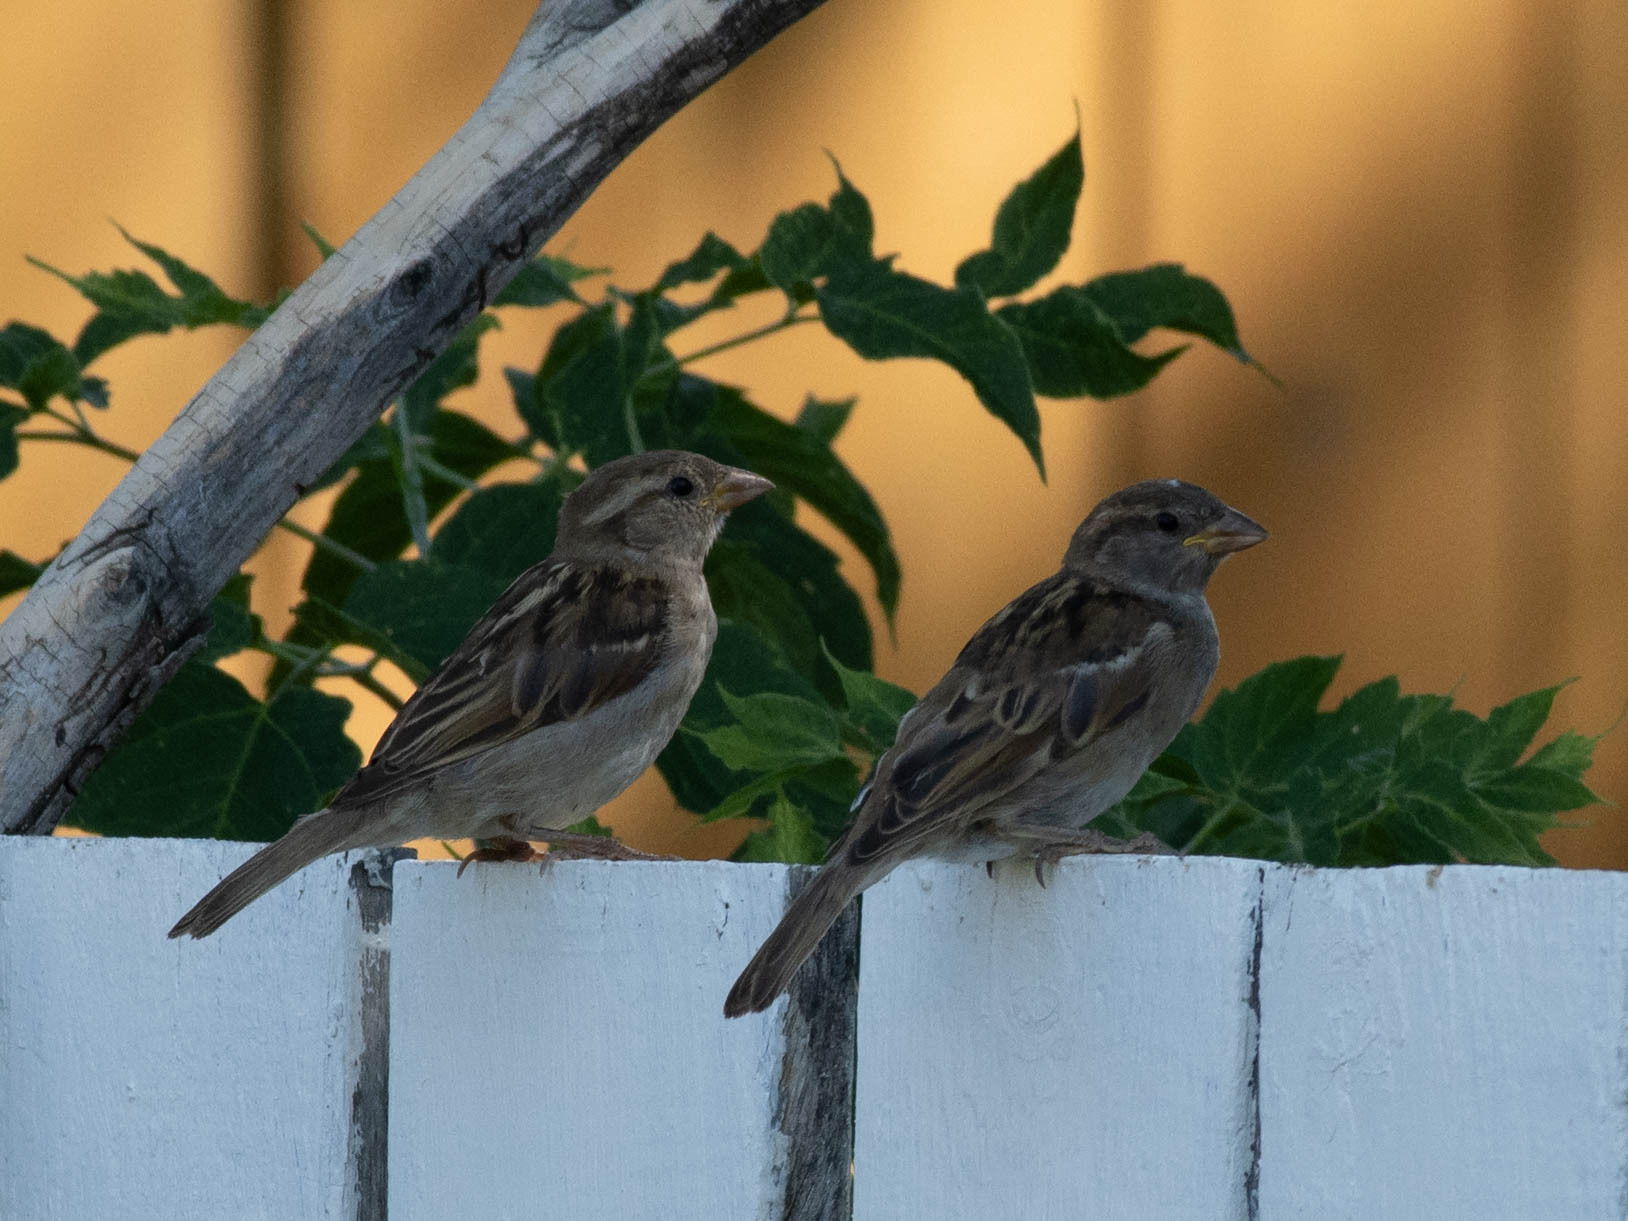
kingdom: Animalia
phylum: Chordata
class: Aves
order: Passeriformes
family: Passeridae
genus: Passer
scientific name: Passer domesticus
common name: House sparrow
